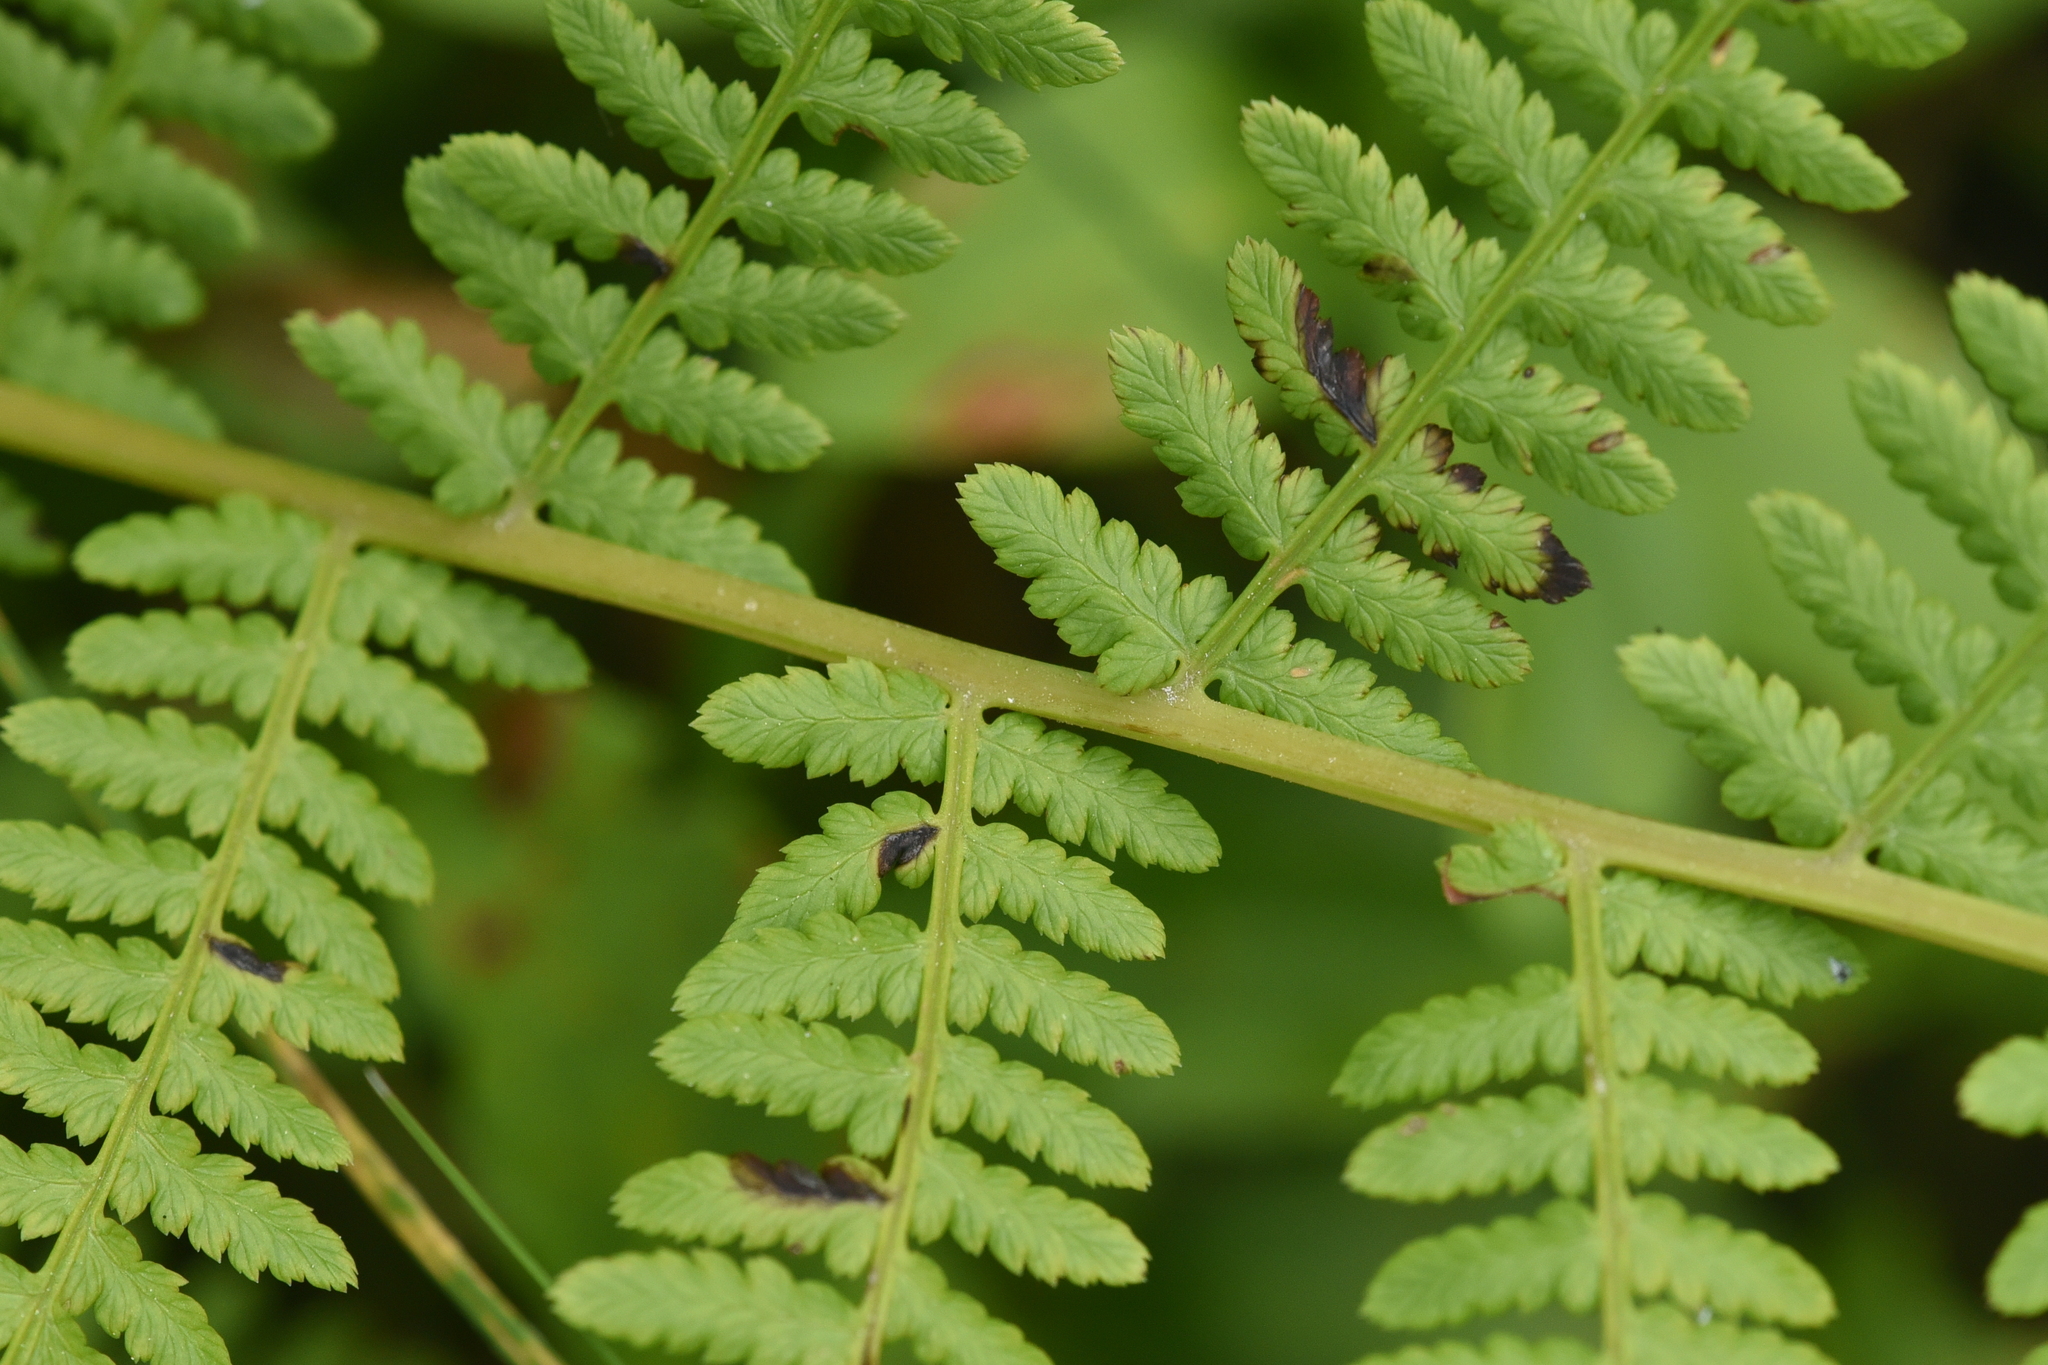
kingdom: Plantae
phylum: Tracheophyta
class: Polypodiopsida
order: Polypodiales
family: Athyriaceae
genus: Athyrium
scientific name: Athyrium filix-femina
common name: Lady fern
